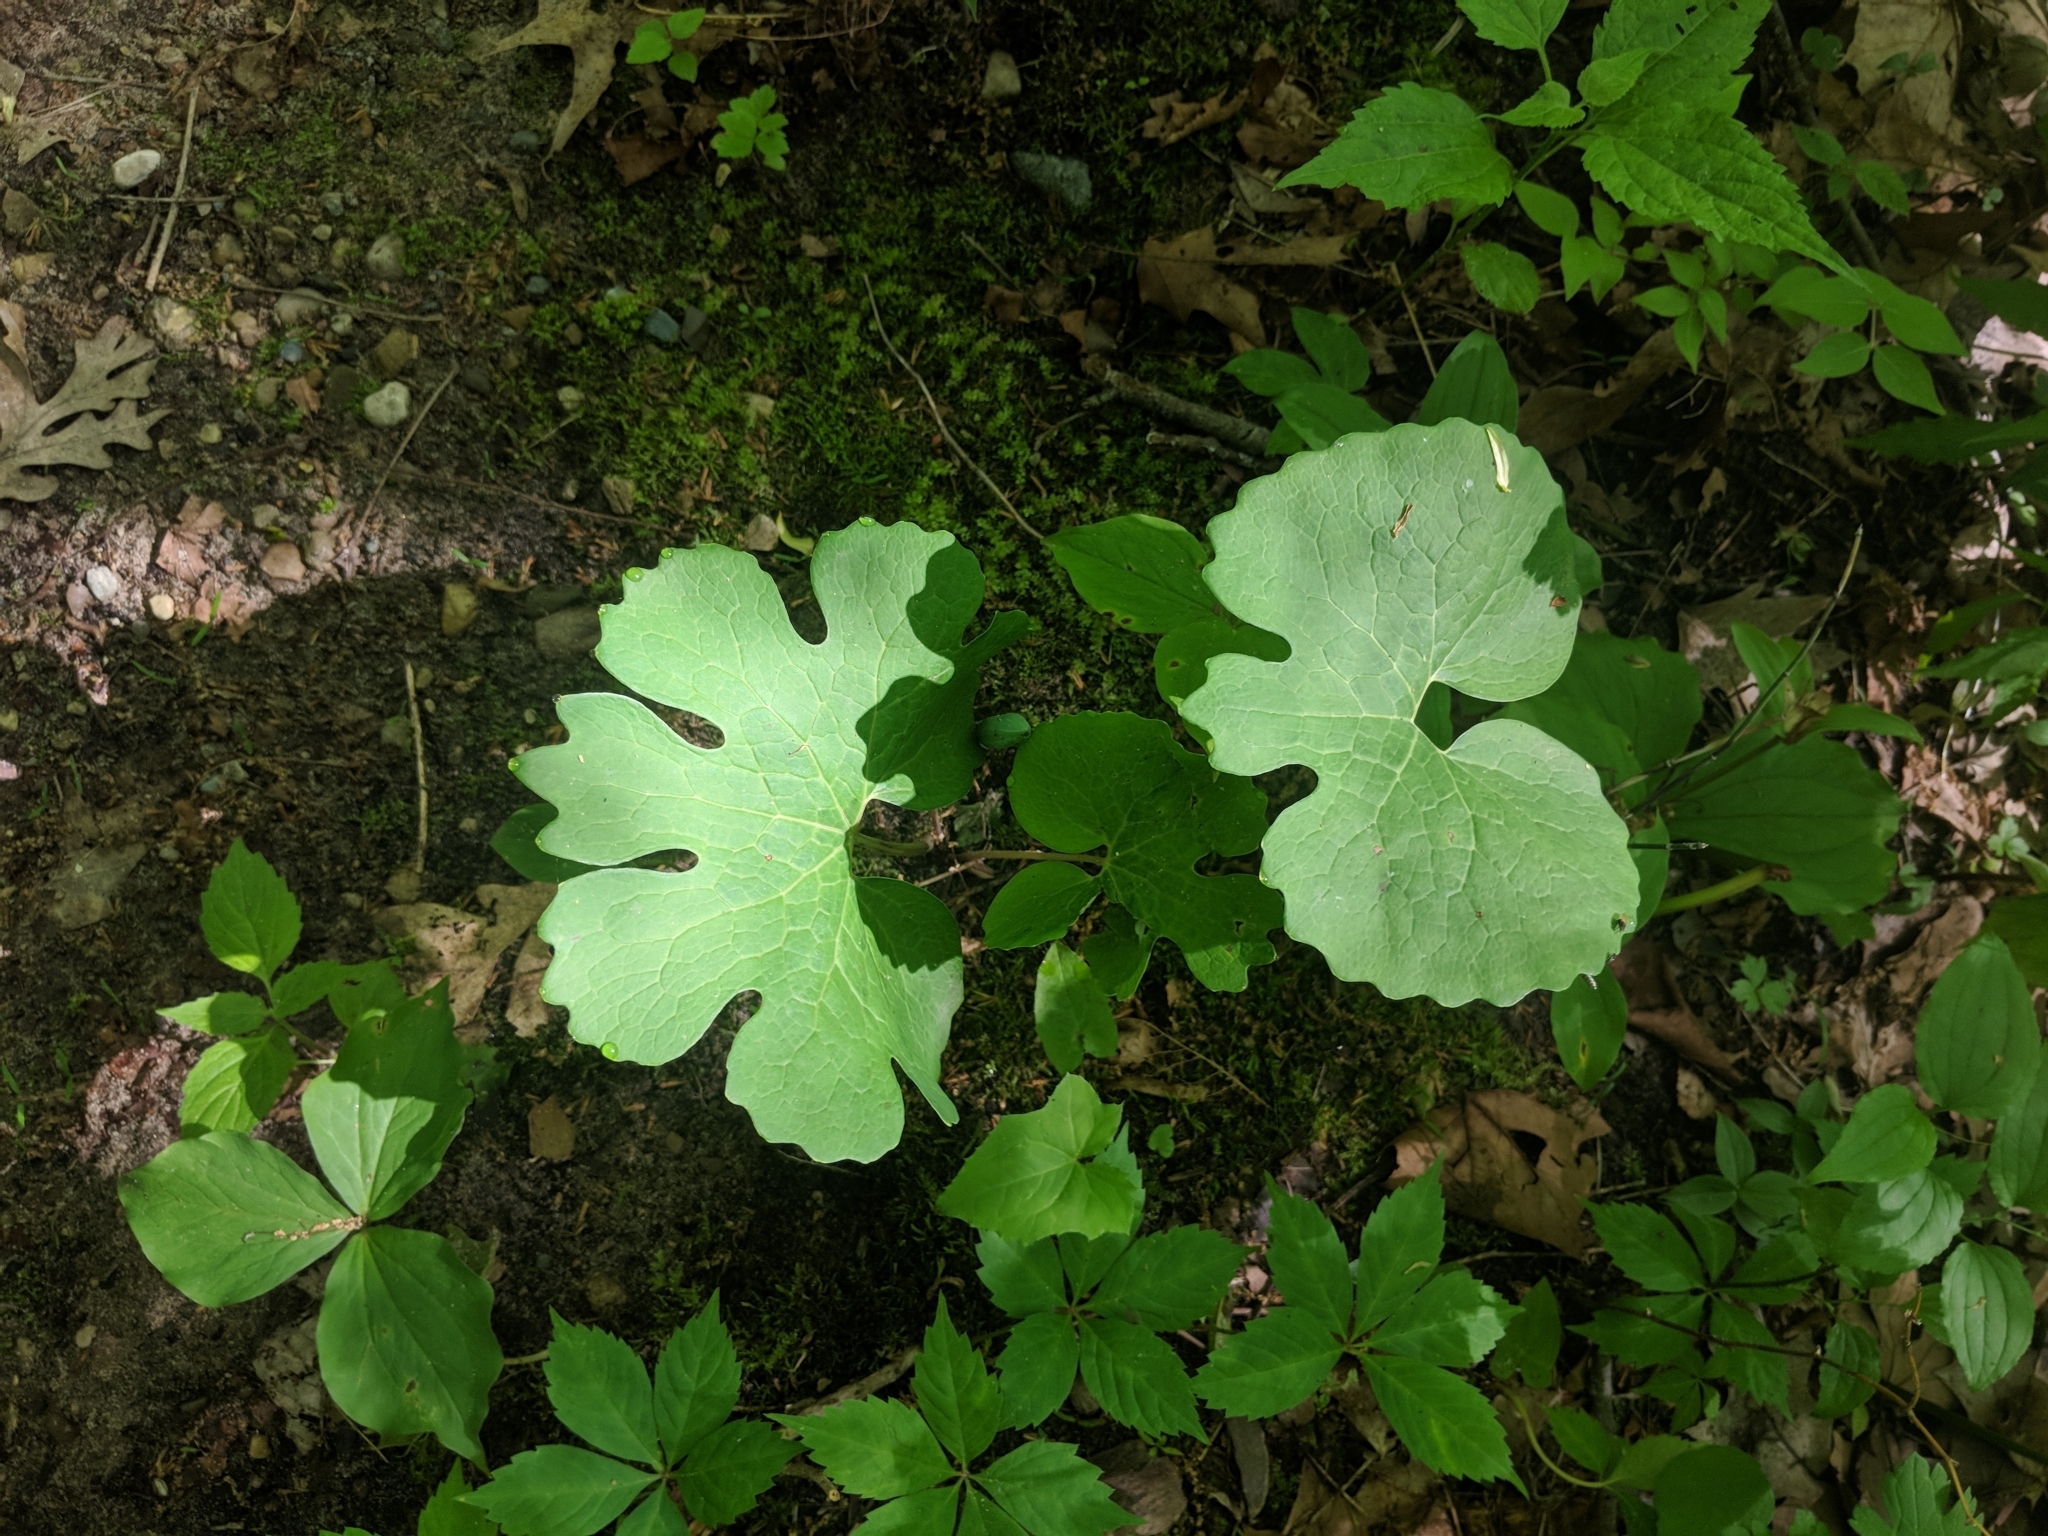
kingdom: Plantae
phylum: Tracheophyta
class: Magnoliopsida
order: Ranunculales
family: Papaveraceae
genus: Sanguinaria
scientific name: Sanguinaria canadensis
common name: Bloodroot
